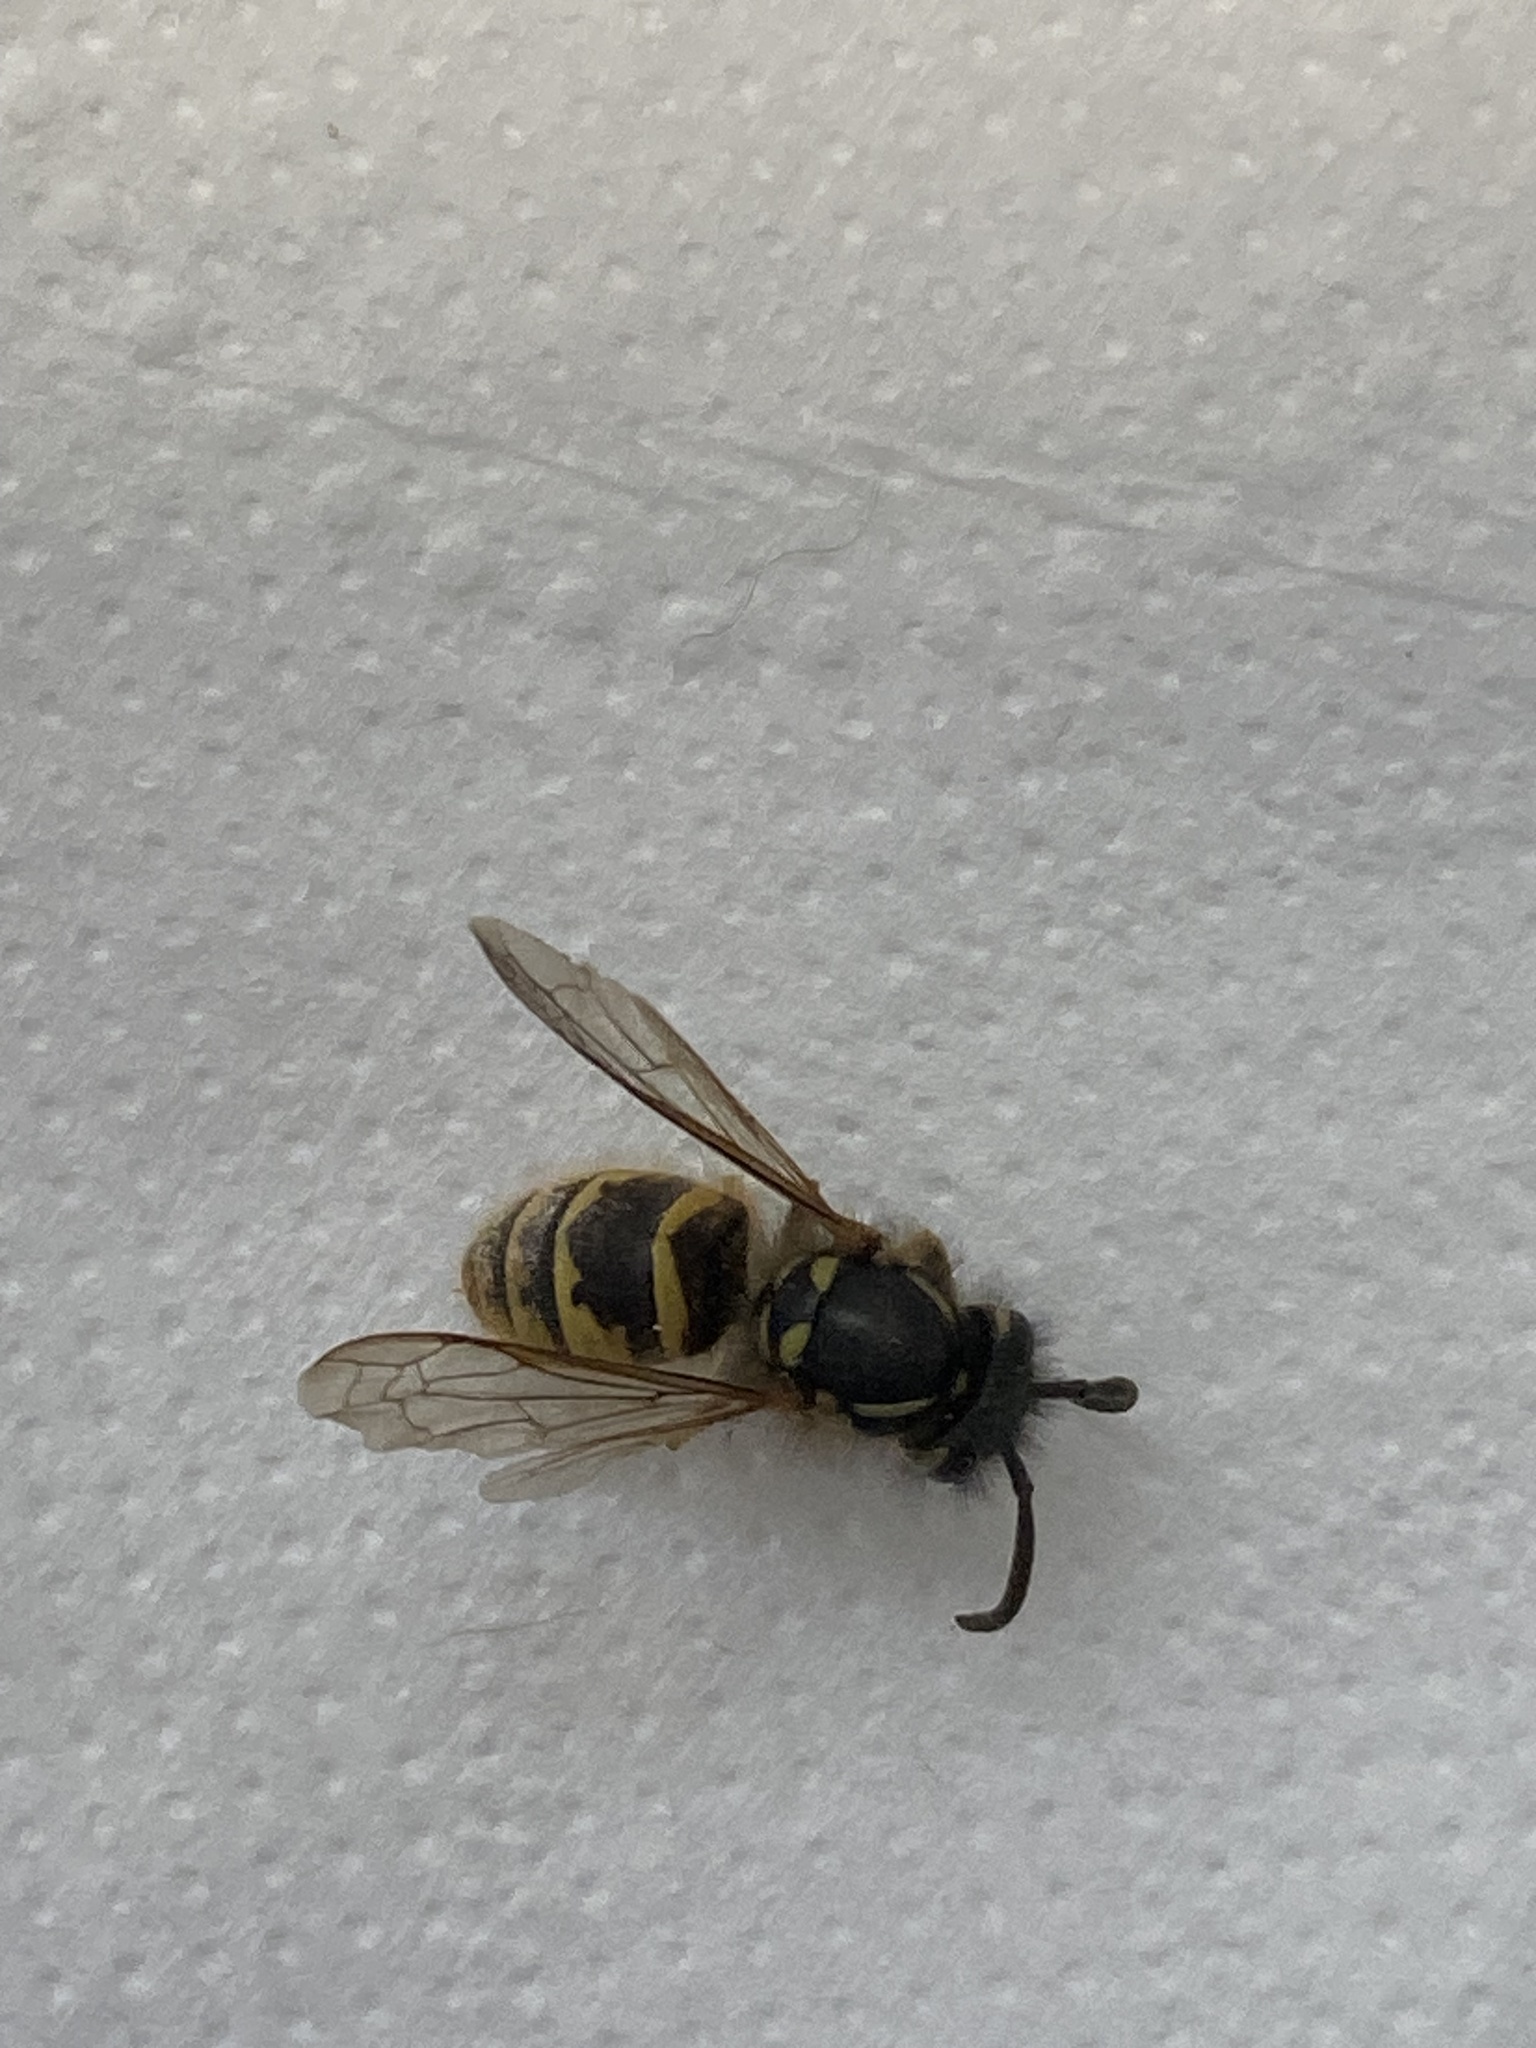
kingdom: Animalia
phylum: Arthropoda
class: Insecta
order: Hymenoptera
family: Vespidae
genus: Vespula
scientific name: Vespula vulgaris
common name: Common wasp
